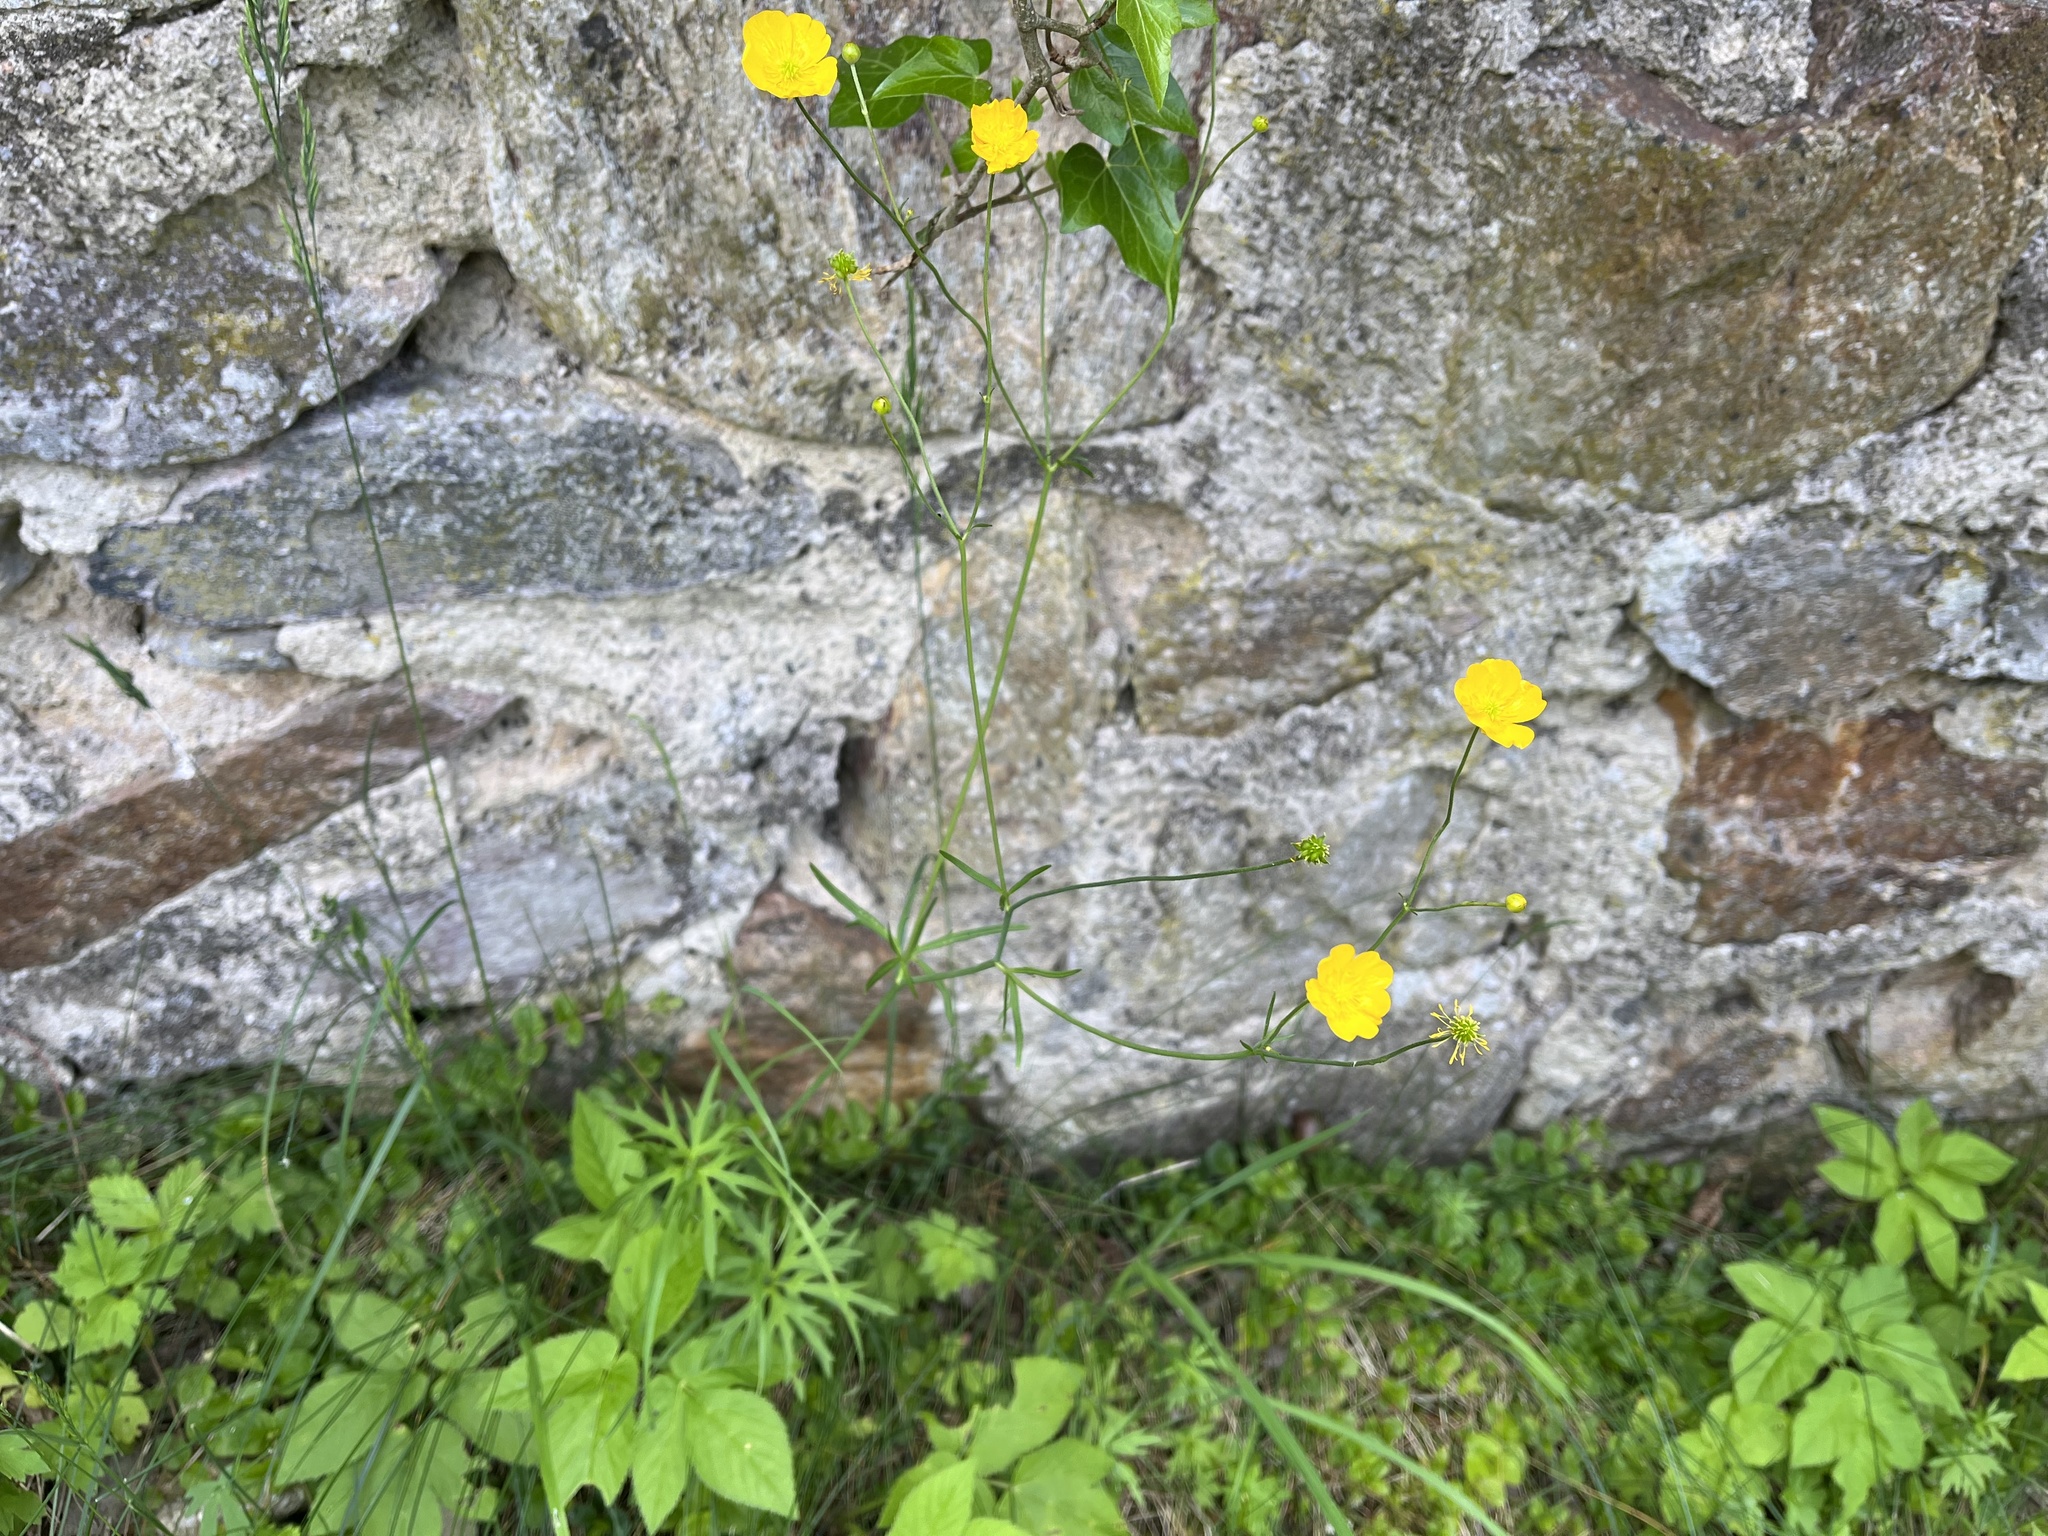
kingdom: Plantae
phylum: Tracheophyta
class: Magnoliopsida
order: Ranunculales
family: Ranunculaceae
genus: Ranunculus
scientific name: Ranunculus acris
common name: Meadow buttercup
